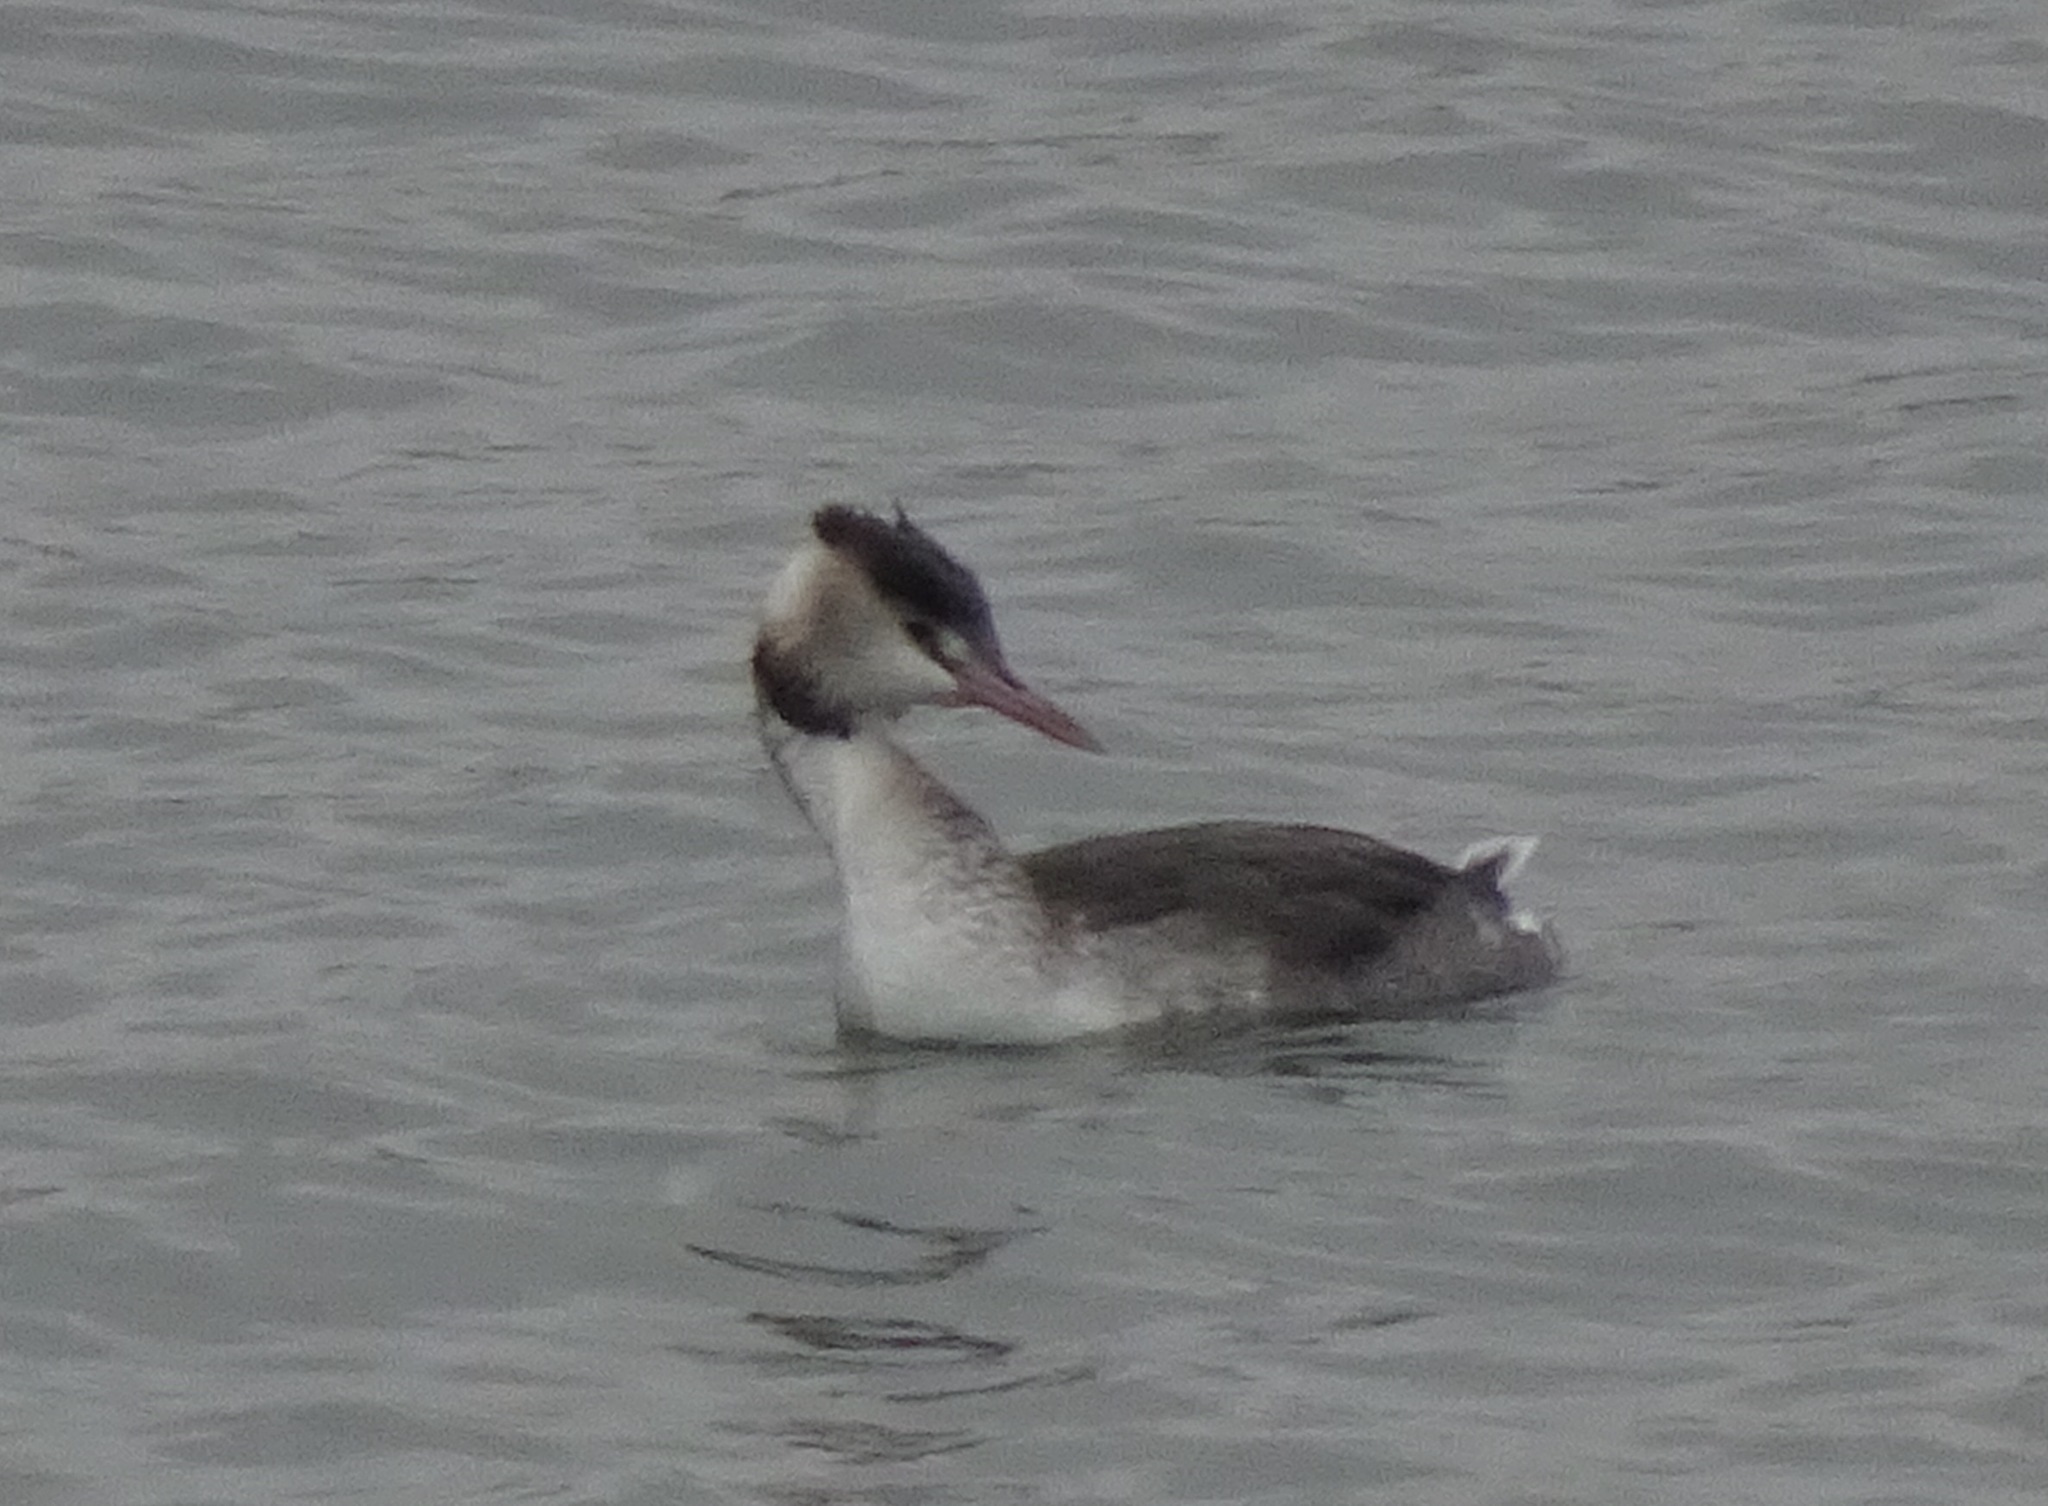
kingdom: Animalia
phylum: Chordata
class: Aves
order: Podicipediformes
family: Podicipedidae
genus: Podiceps
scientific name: Podiceps cristatus
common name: Great crested grebe
